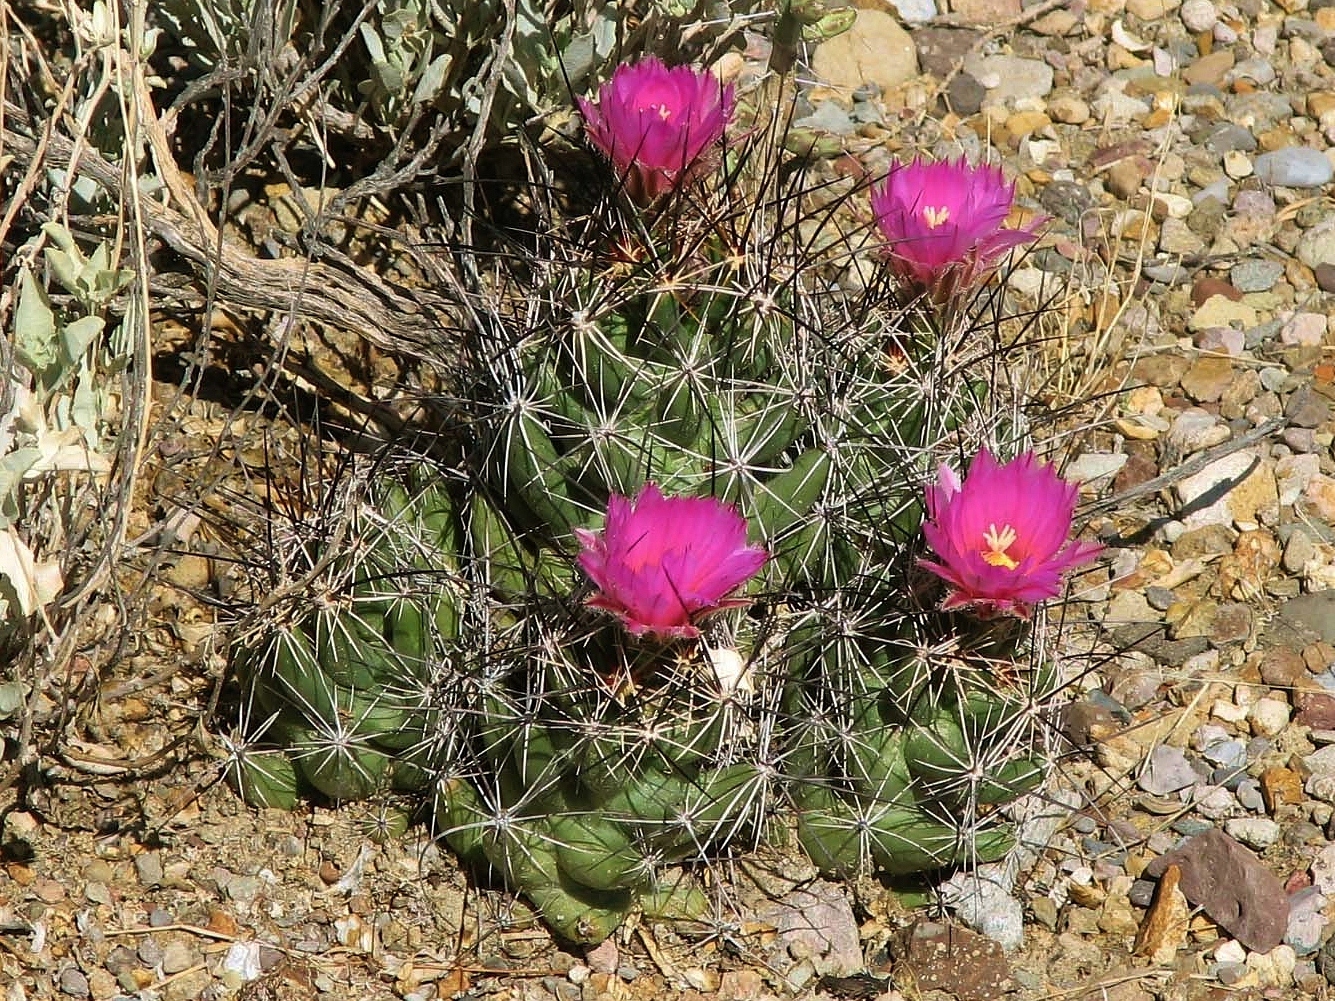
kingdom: Plantae
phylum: Tracheophyta
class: Magnoliopsida
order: Caryophyllales
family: Cactaceae
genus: Coryphantha
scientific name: Coryphantha macromeris
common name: Nipple beehive cactus
